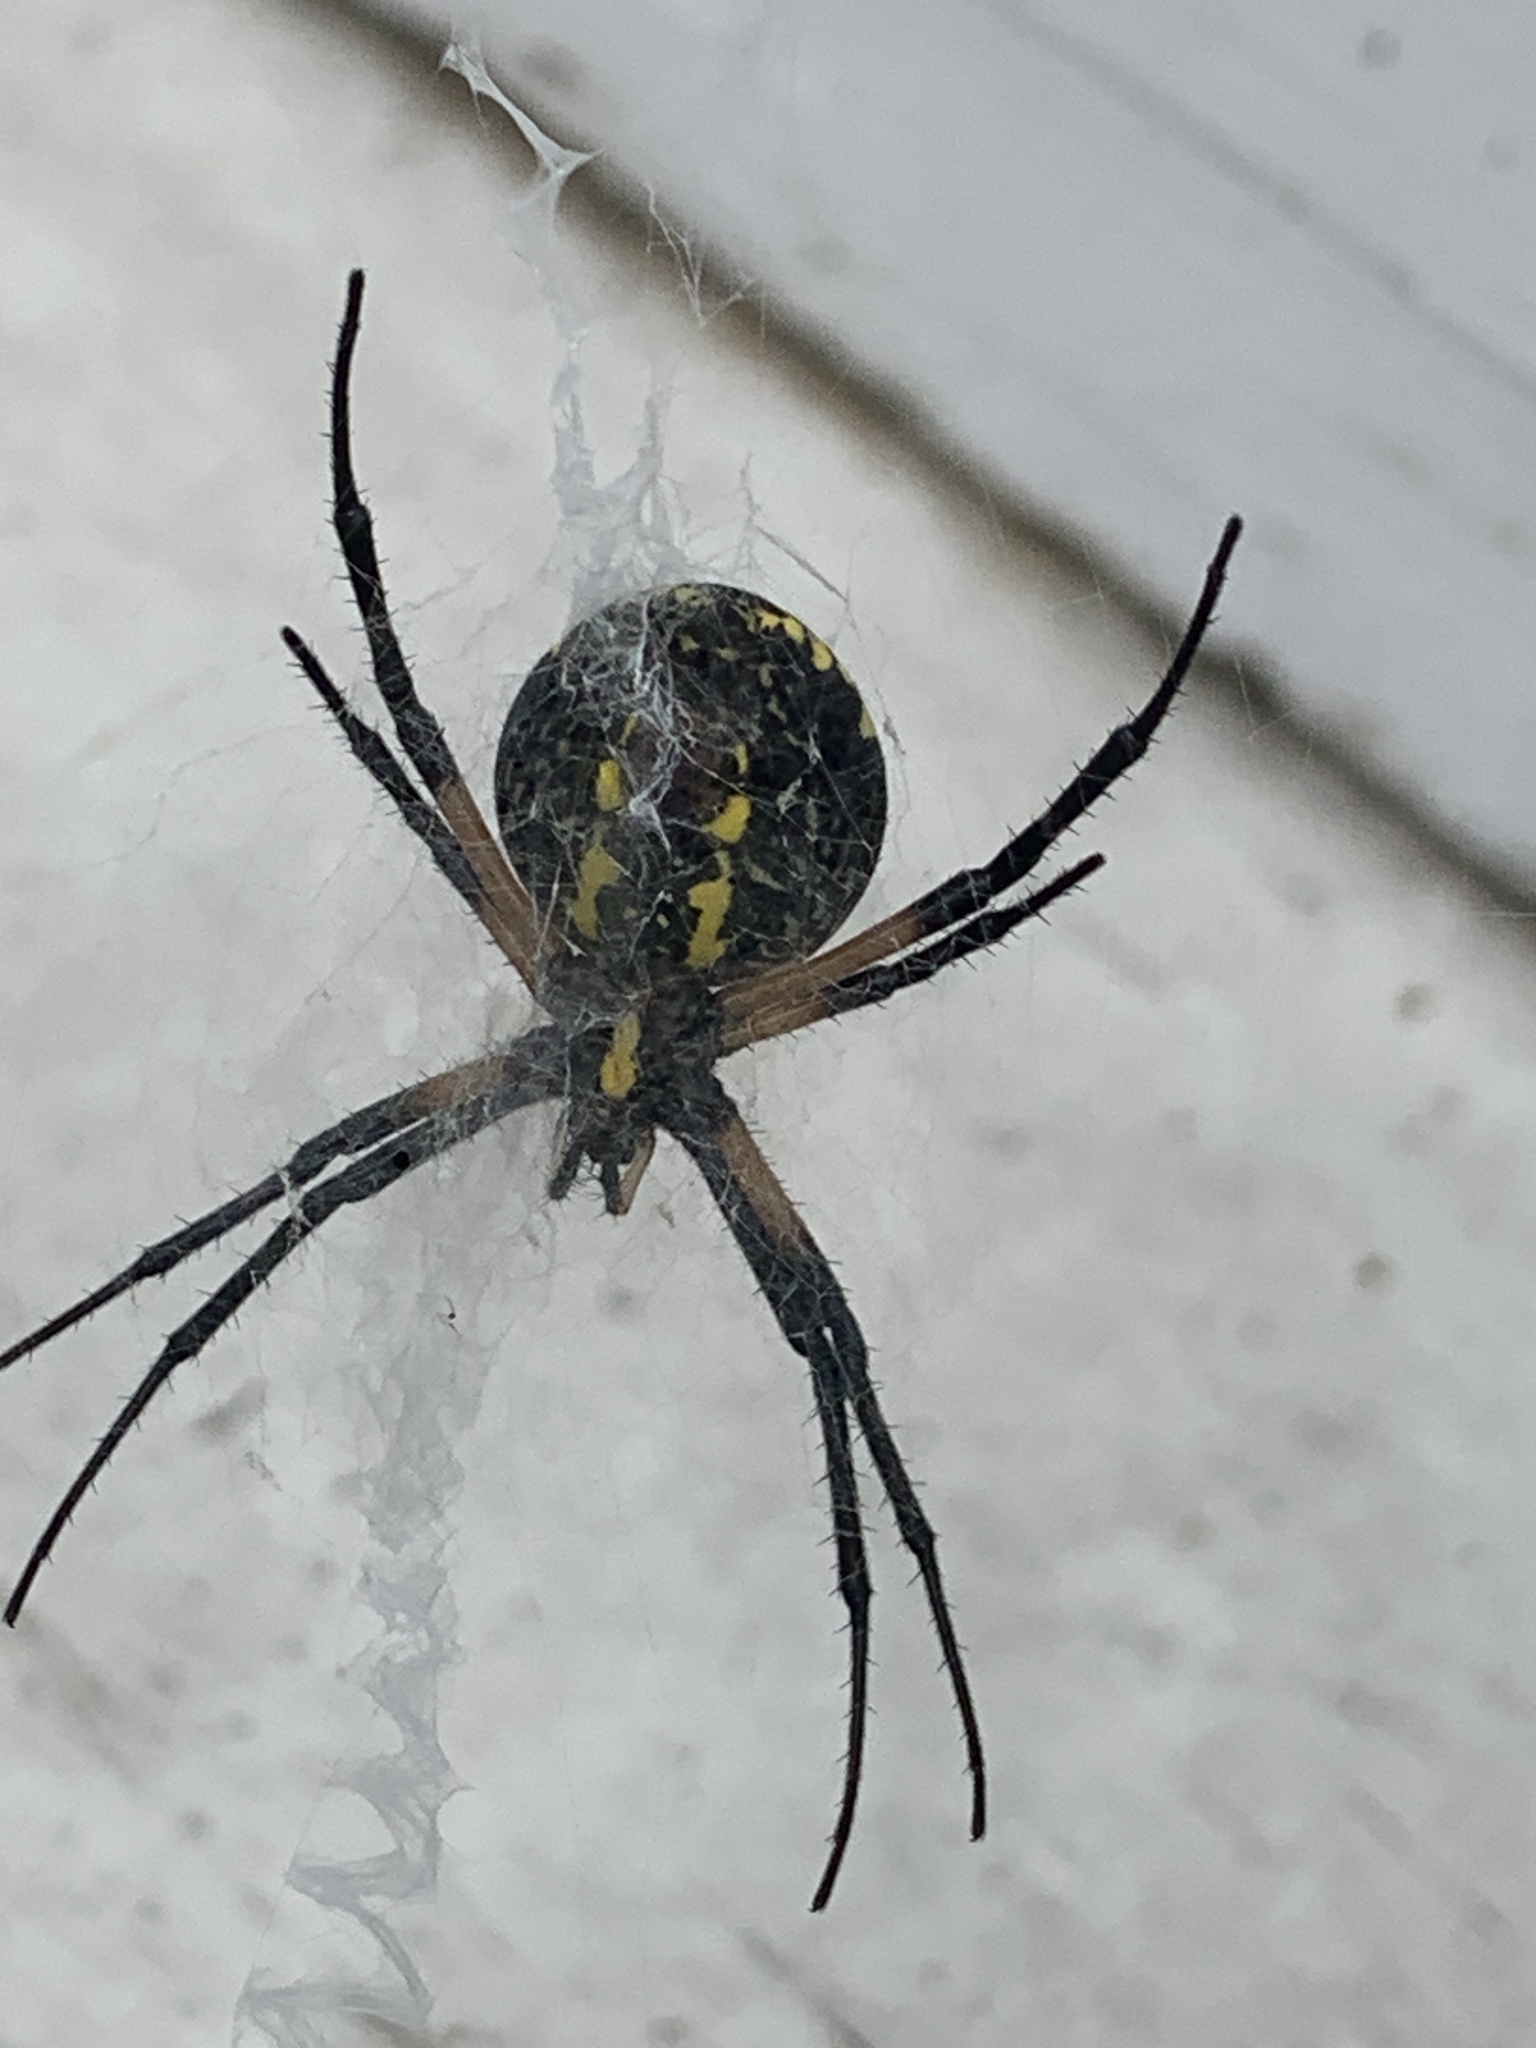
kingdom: Animalia
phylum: Arthropoda
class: Arachnida
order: Araneae
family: Araneidae
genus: Argiope
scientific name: Argiope aurantia
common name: Orb weavers
